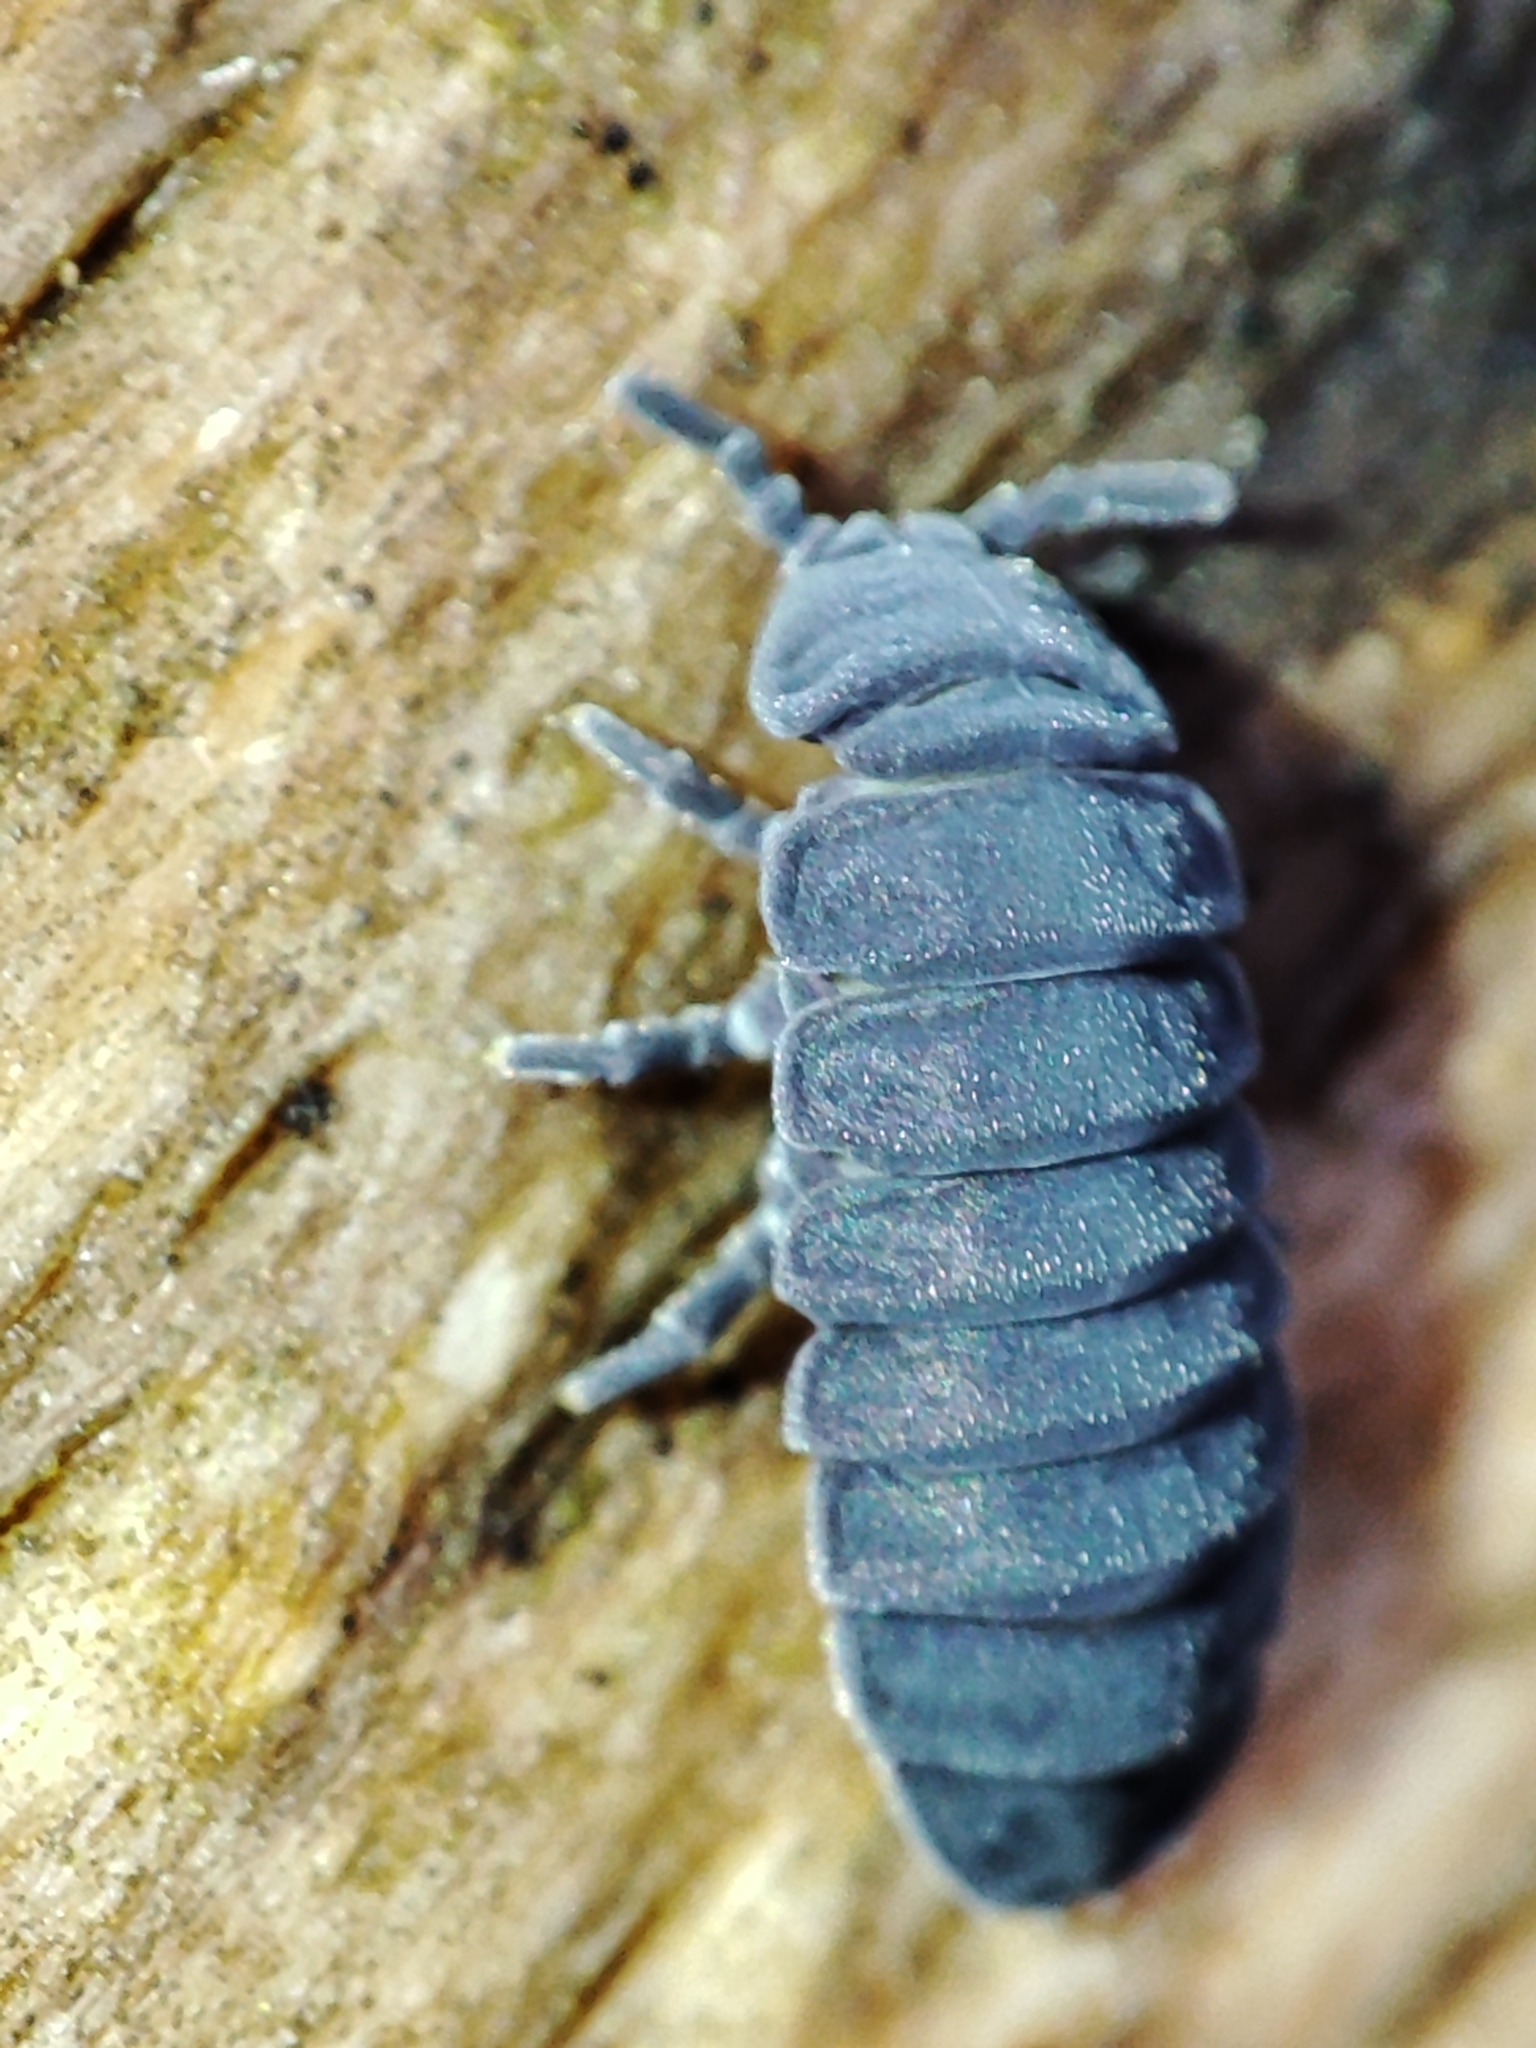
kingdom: Animalia
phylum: Arthropoda
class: Collembola
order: Poduromorpha
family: Onychiuridae
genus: Tetrodontophora
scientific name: Tetrodontophora bielanensis
